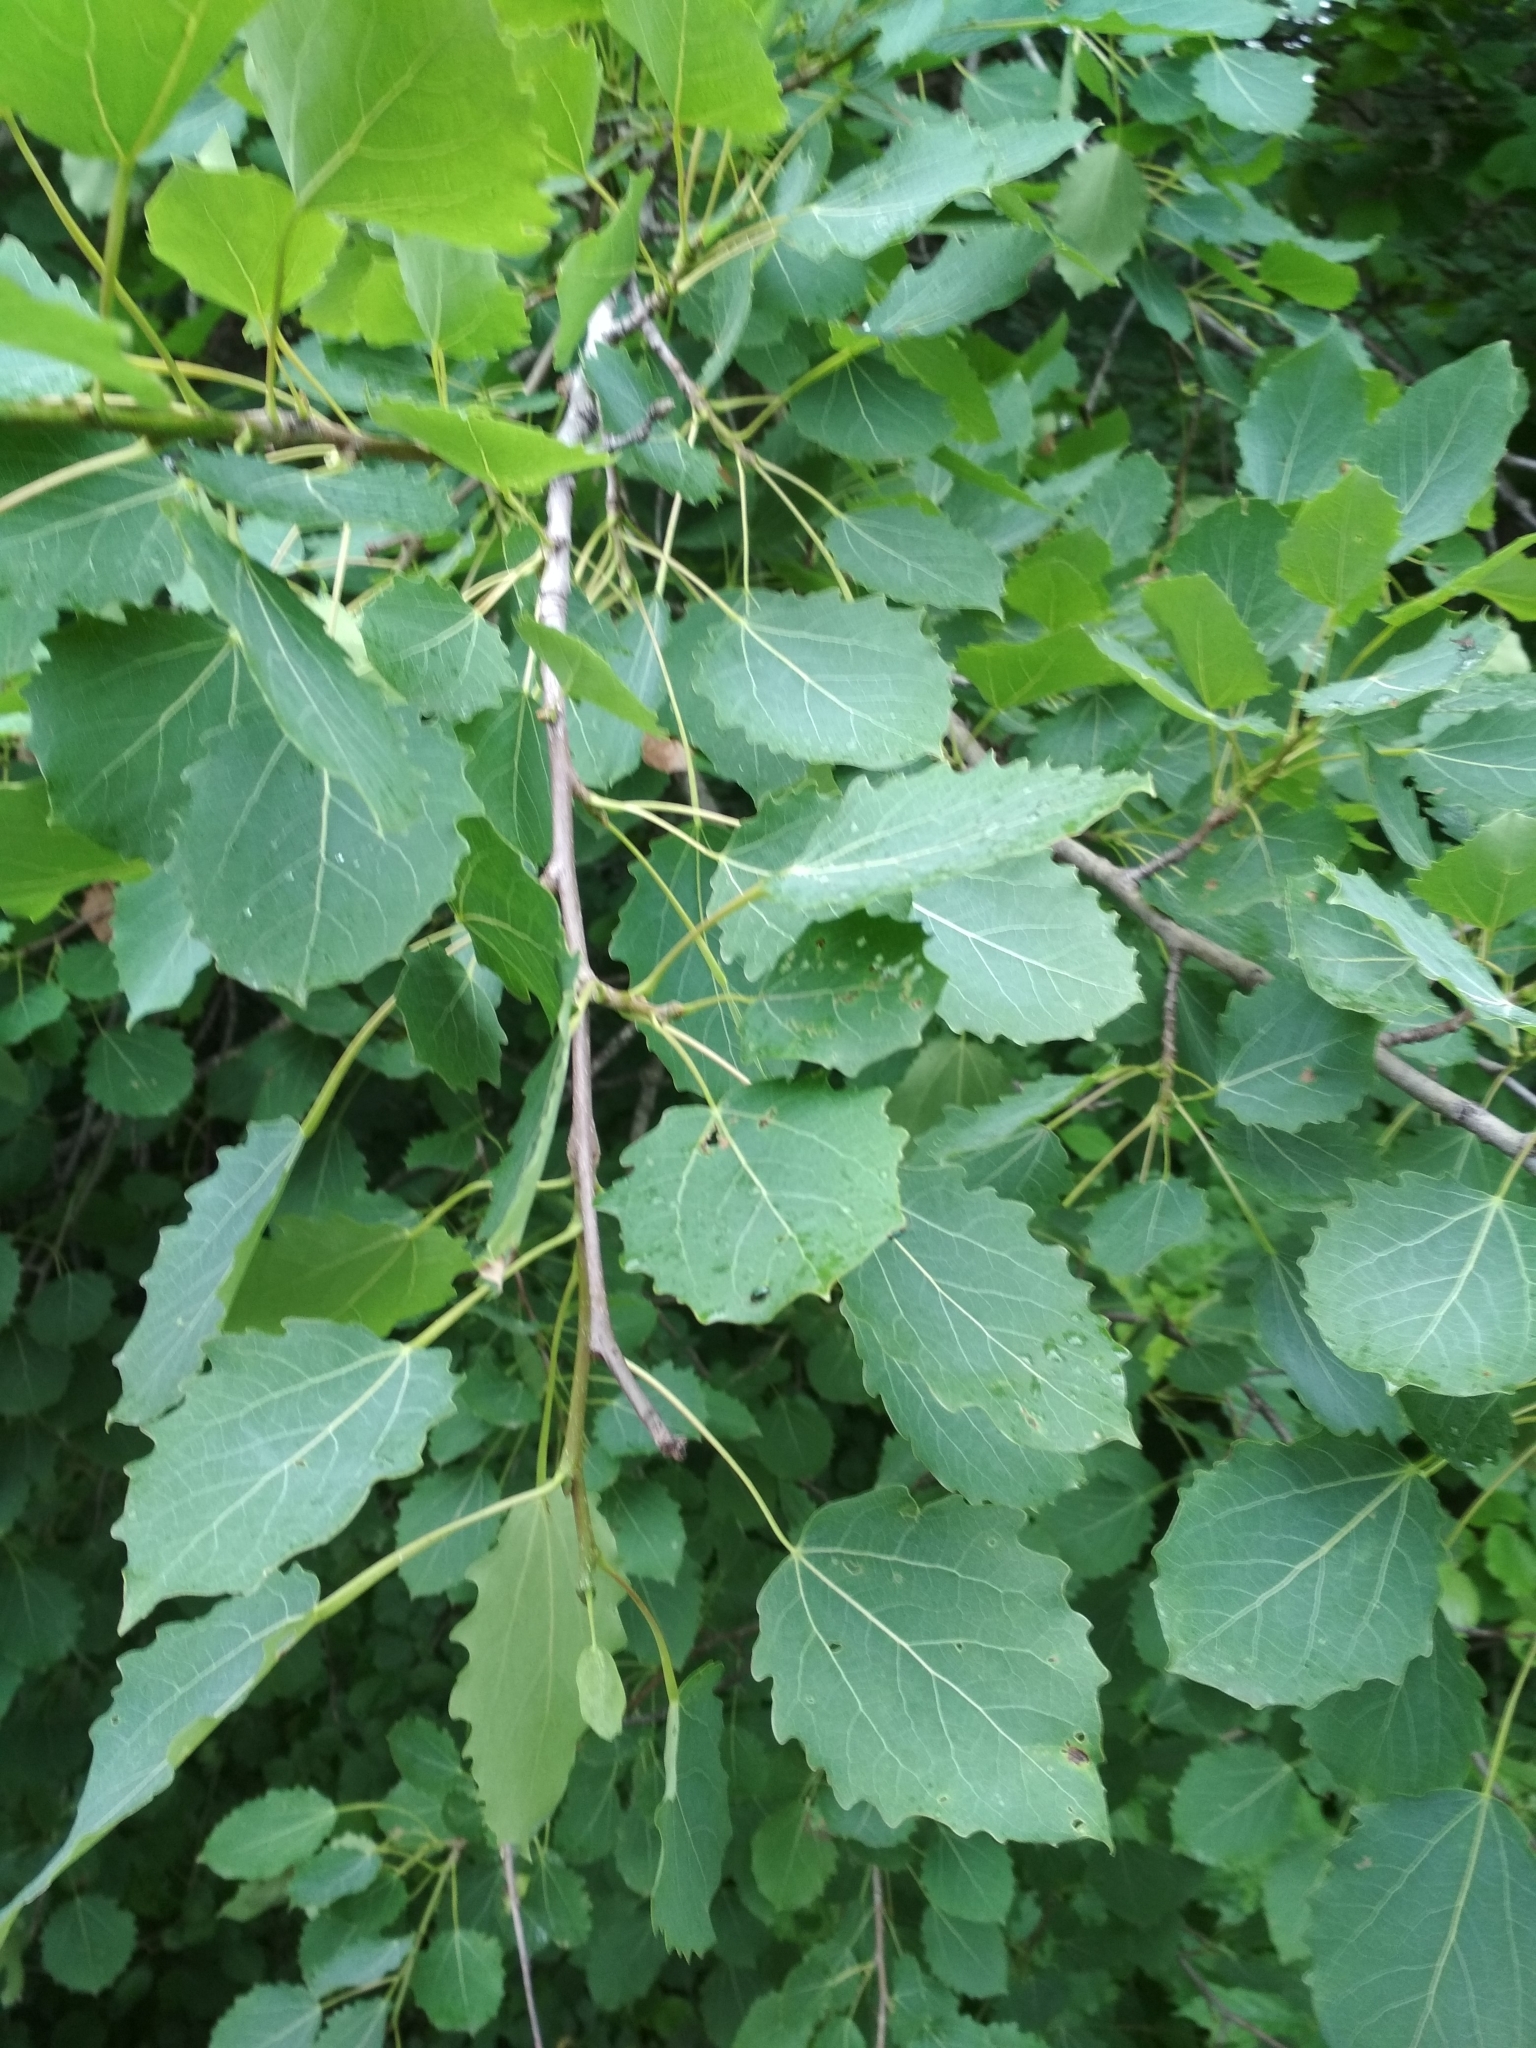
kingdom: Plantae
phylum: Tracheophyta
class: Magnoliopsida
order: Malpighiales
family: Salicaceae
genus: Populus
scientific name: Populus tremula
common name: European aspen
